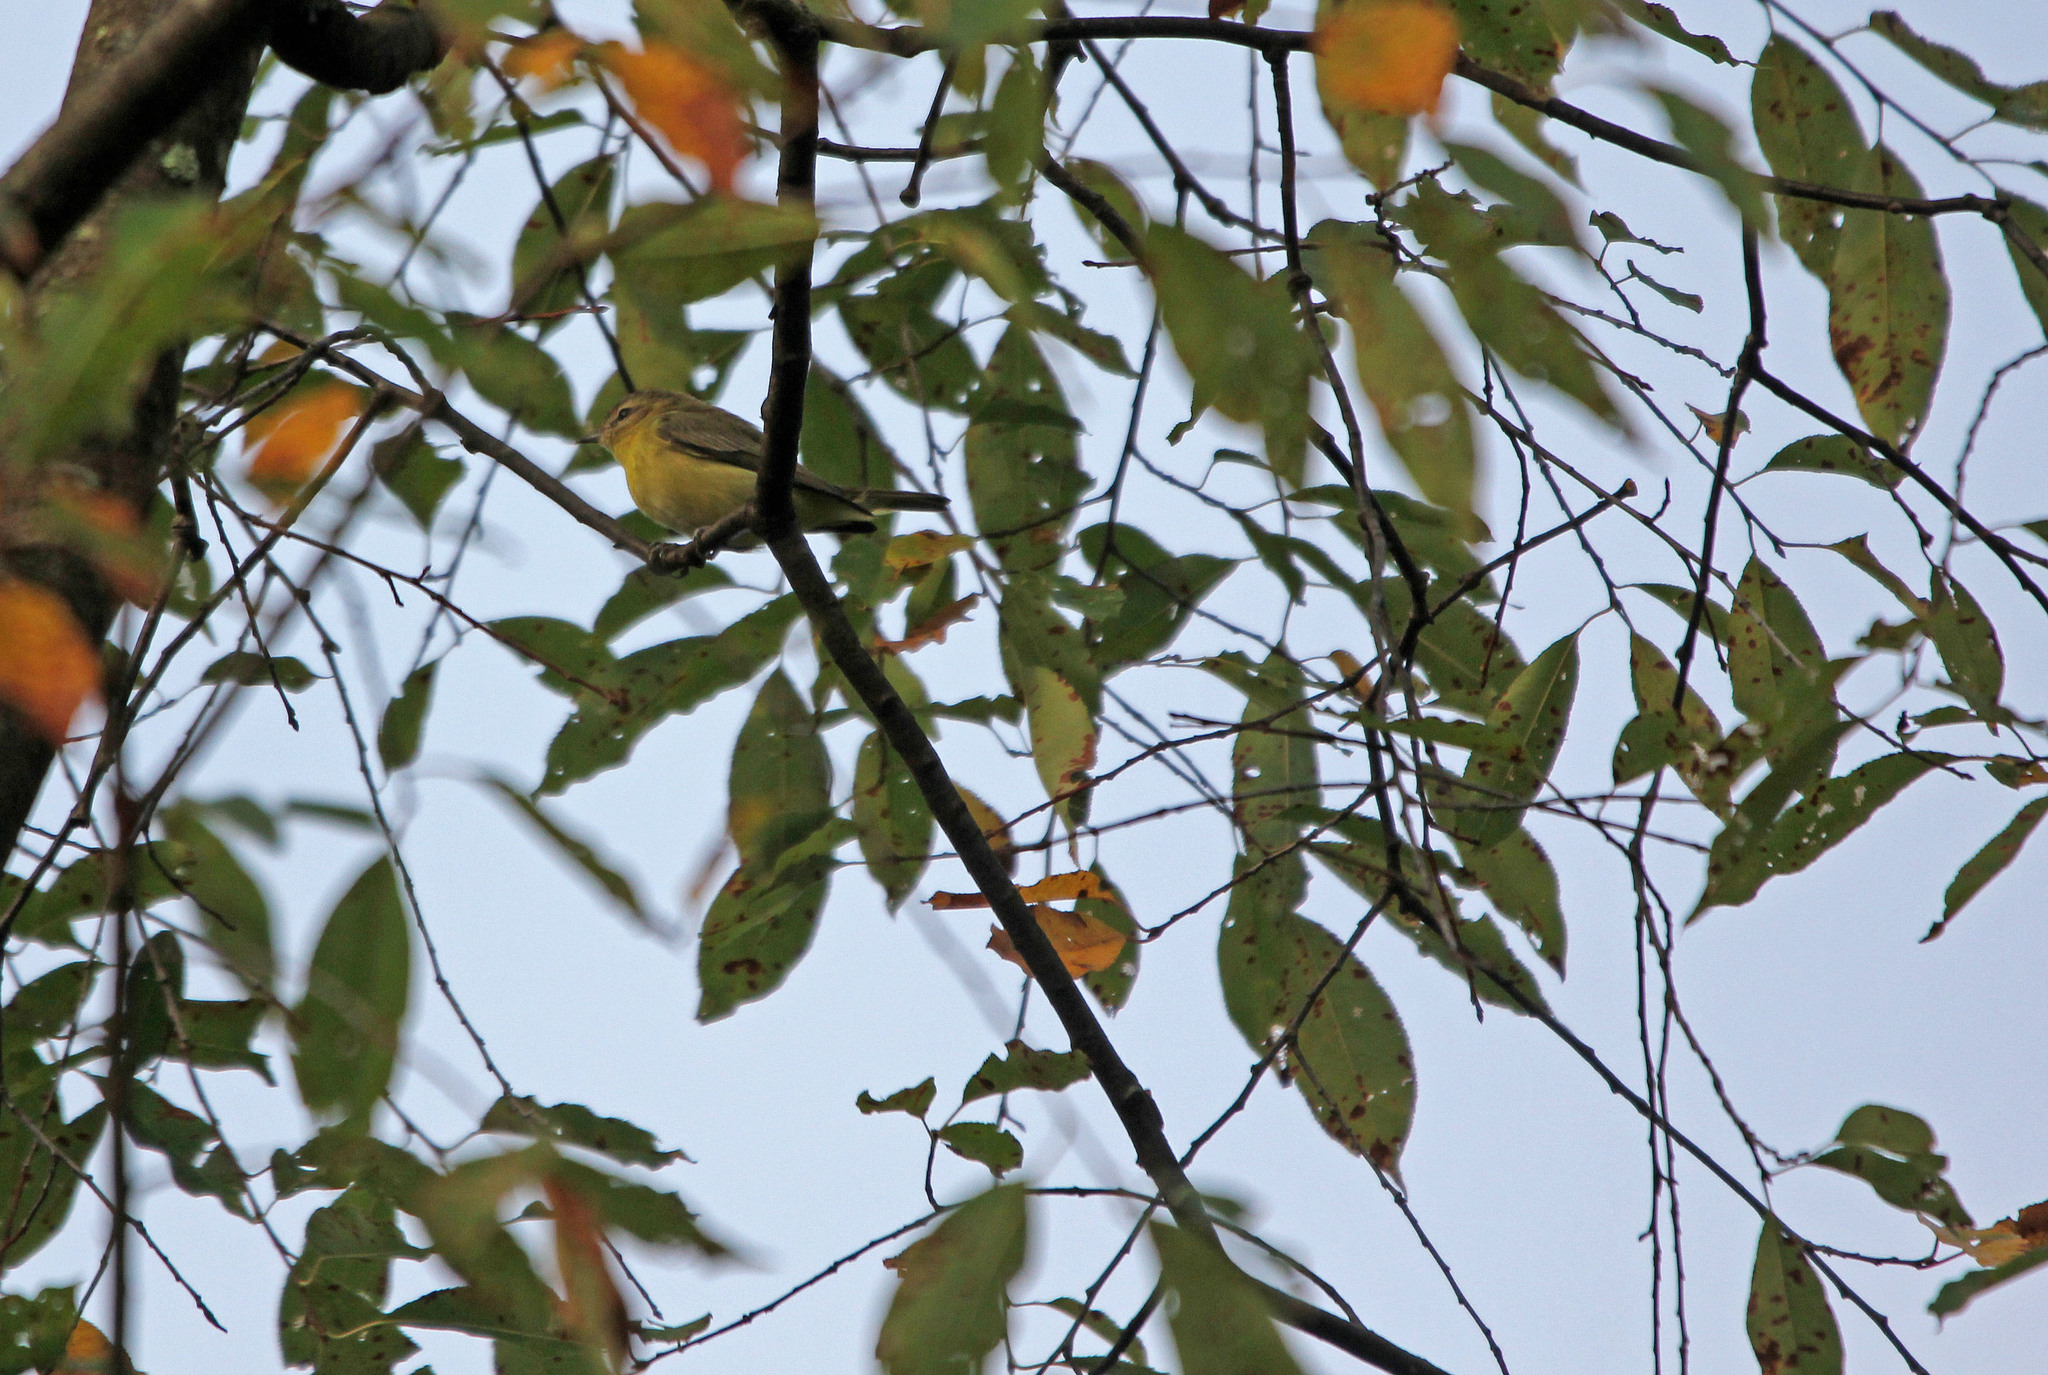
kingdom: Animalia
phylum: Chordata
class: Aves
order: Passeriformes
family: Vireonidae
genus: Vireo
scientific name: Vireo philadelphicus
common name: Philadelphia vireo
